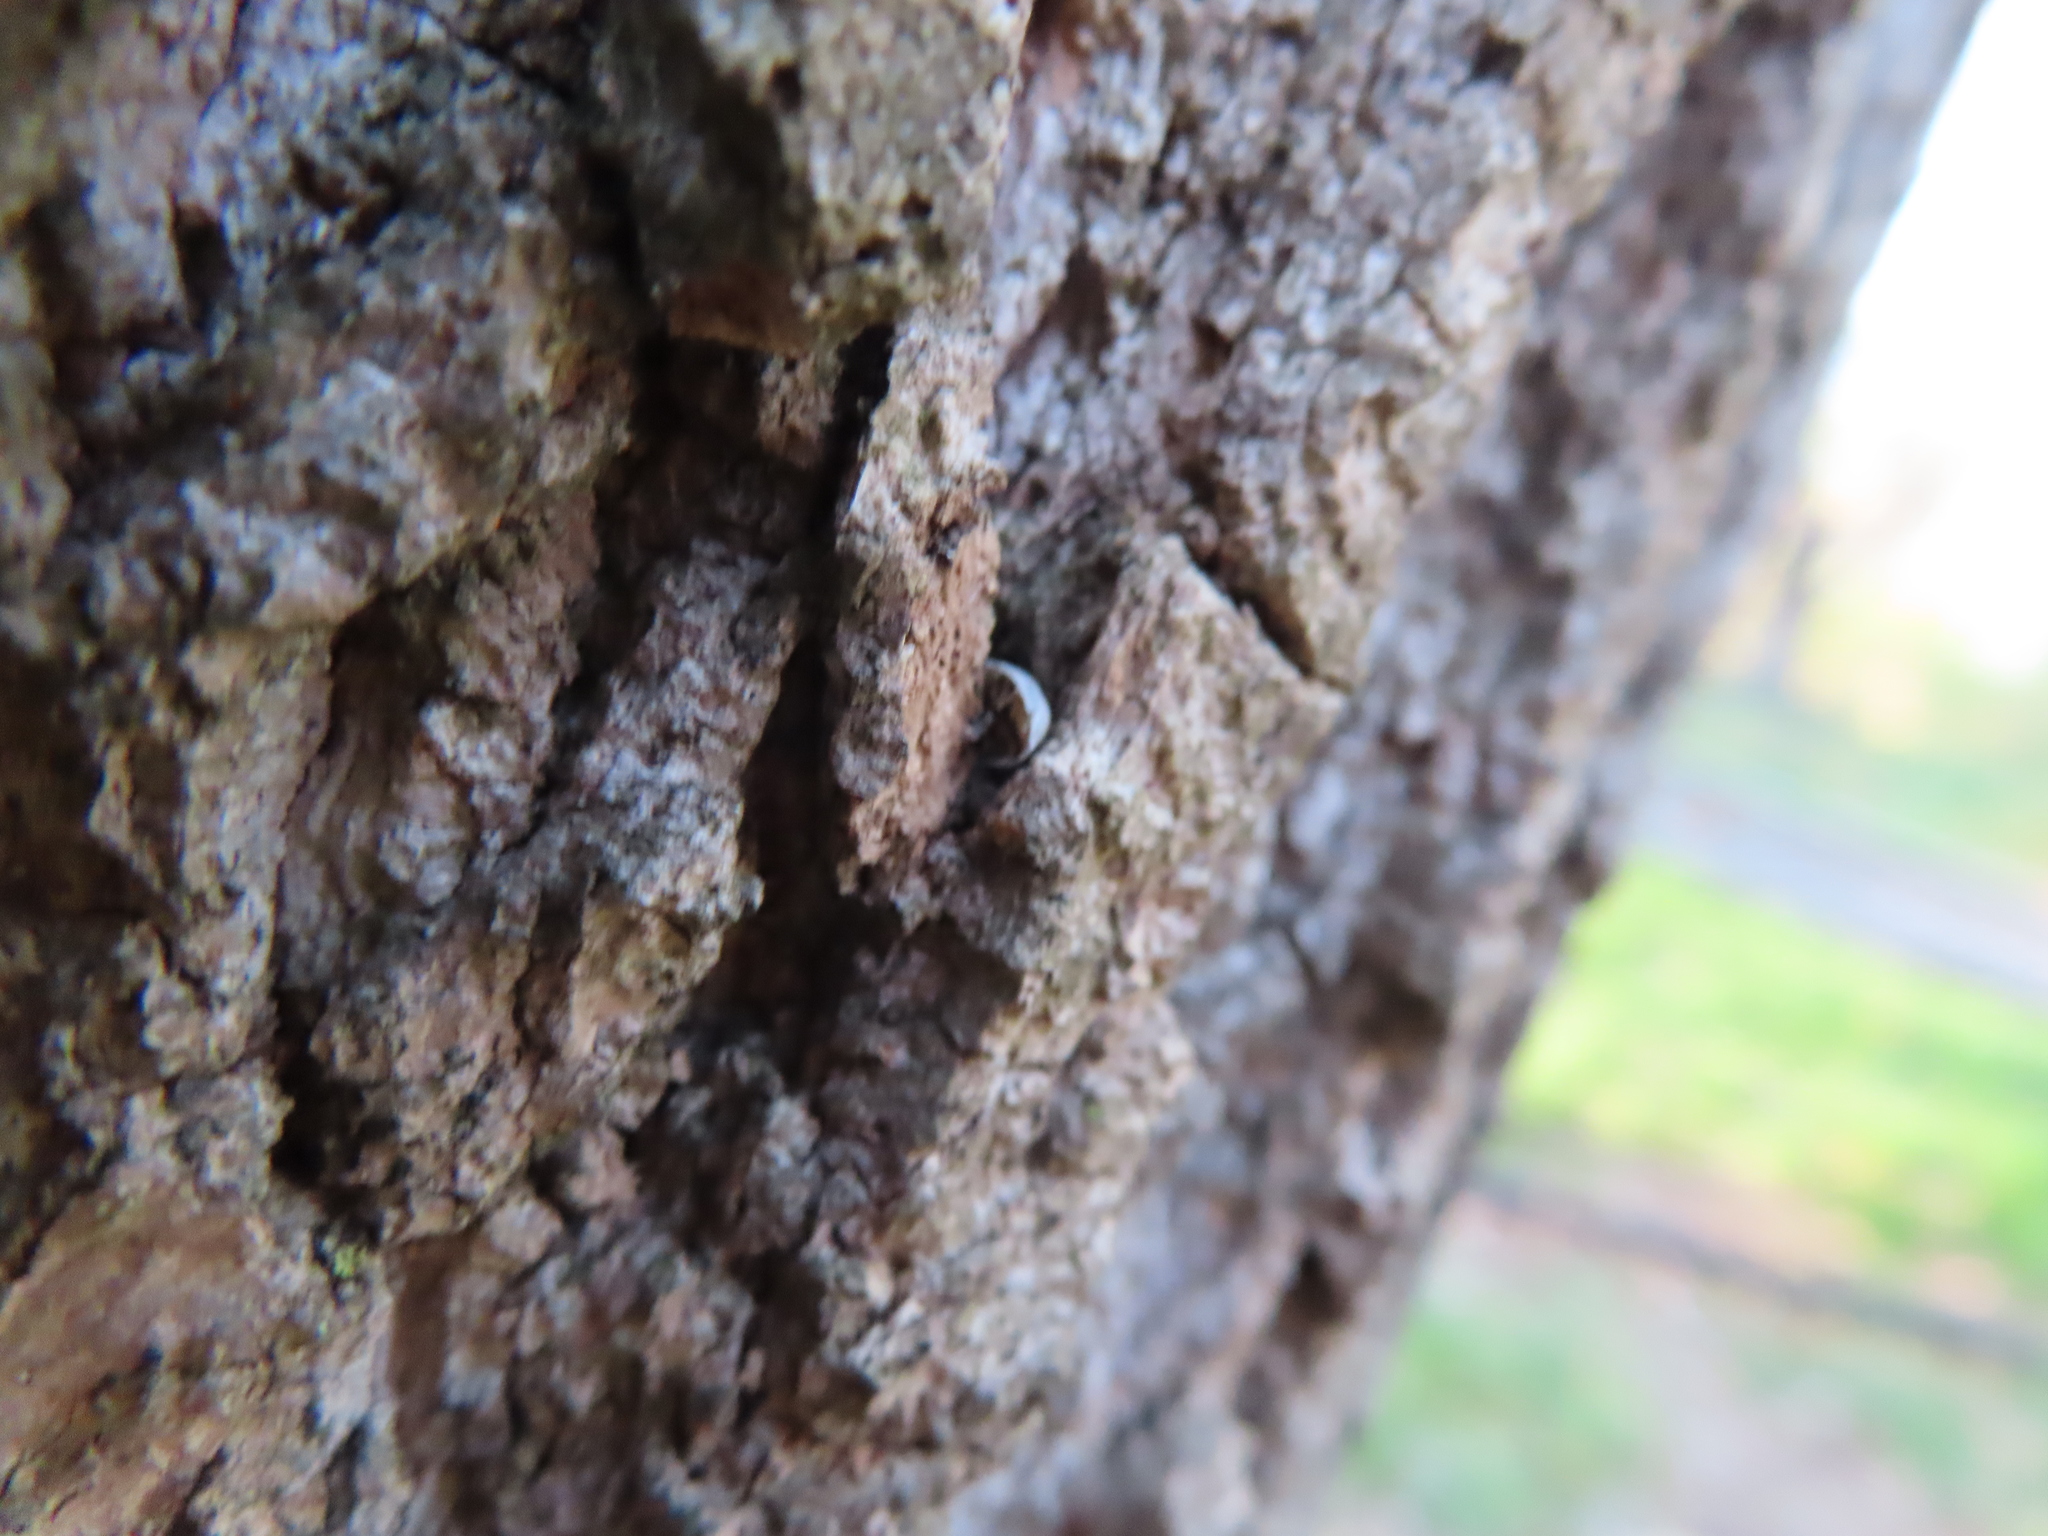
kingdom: Animalia
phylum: Arthropoda
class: Malacostraca
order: Isopoda
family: Armadillidiidae
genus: Armadillidium
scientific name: Armadillidium nasatum
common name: Isopod
